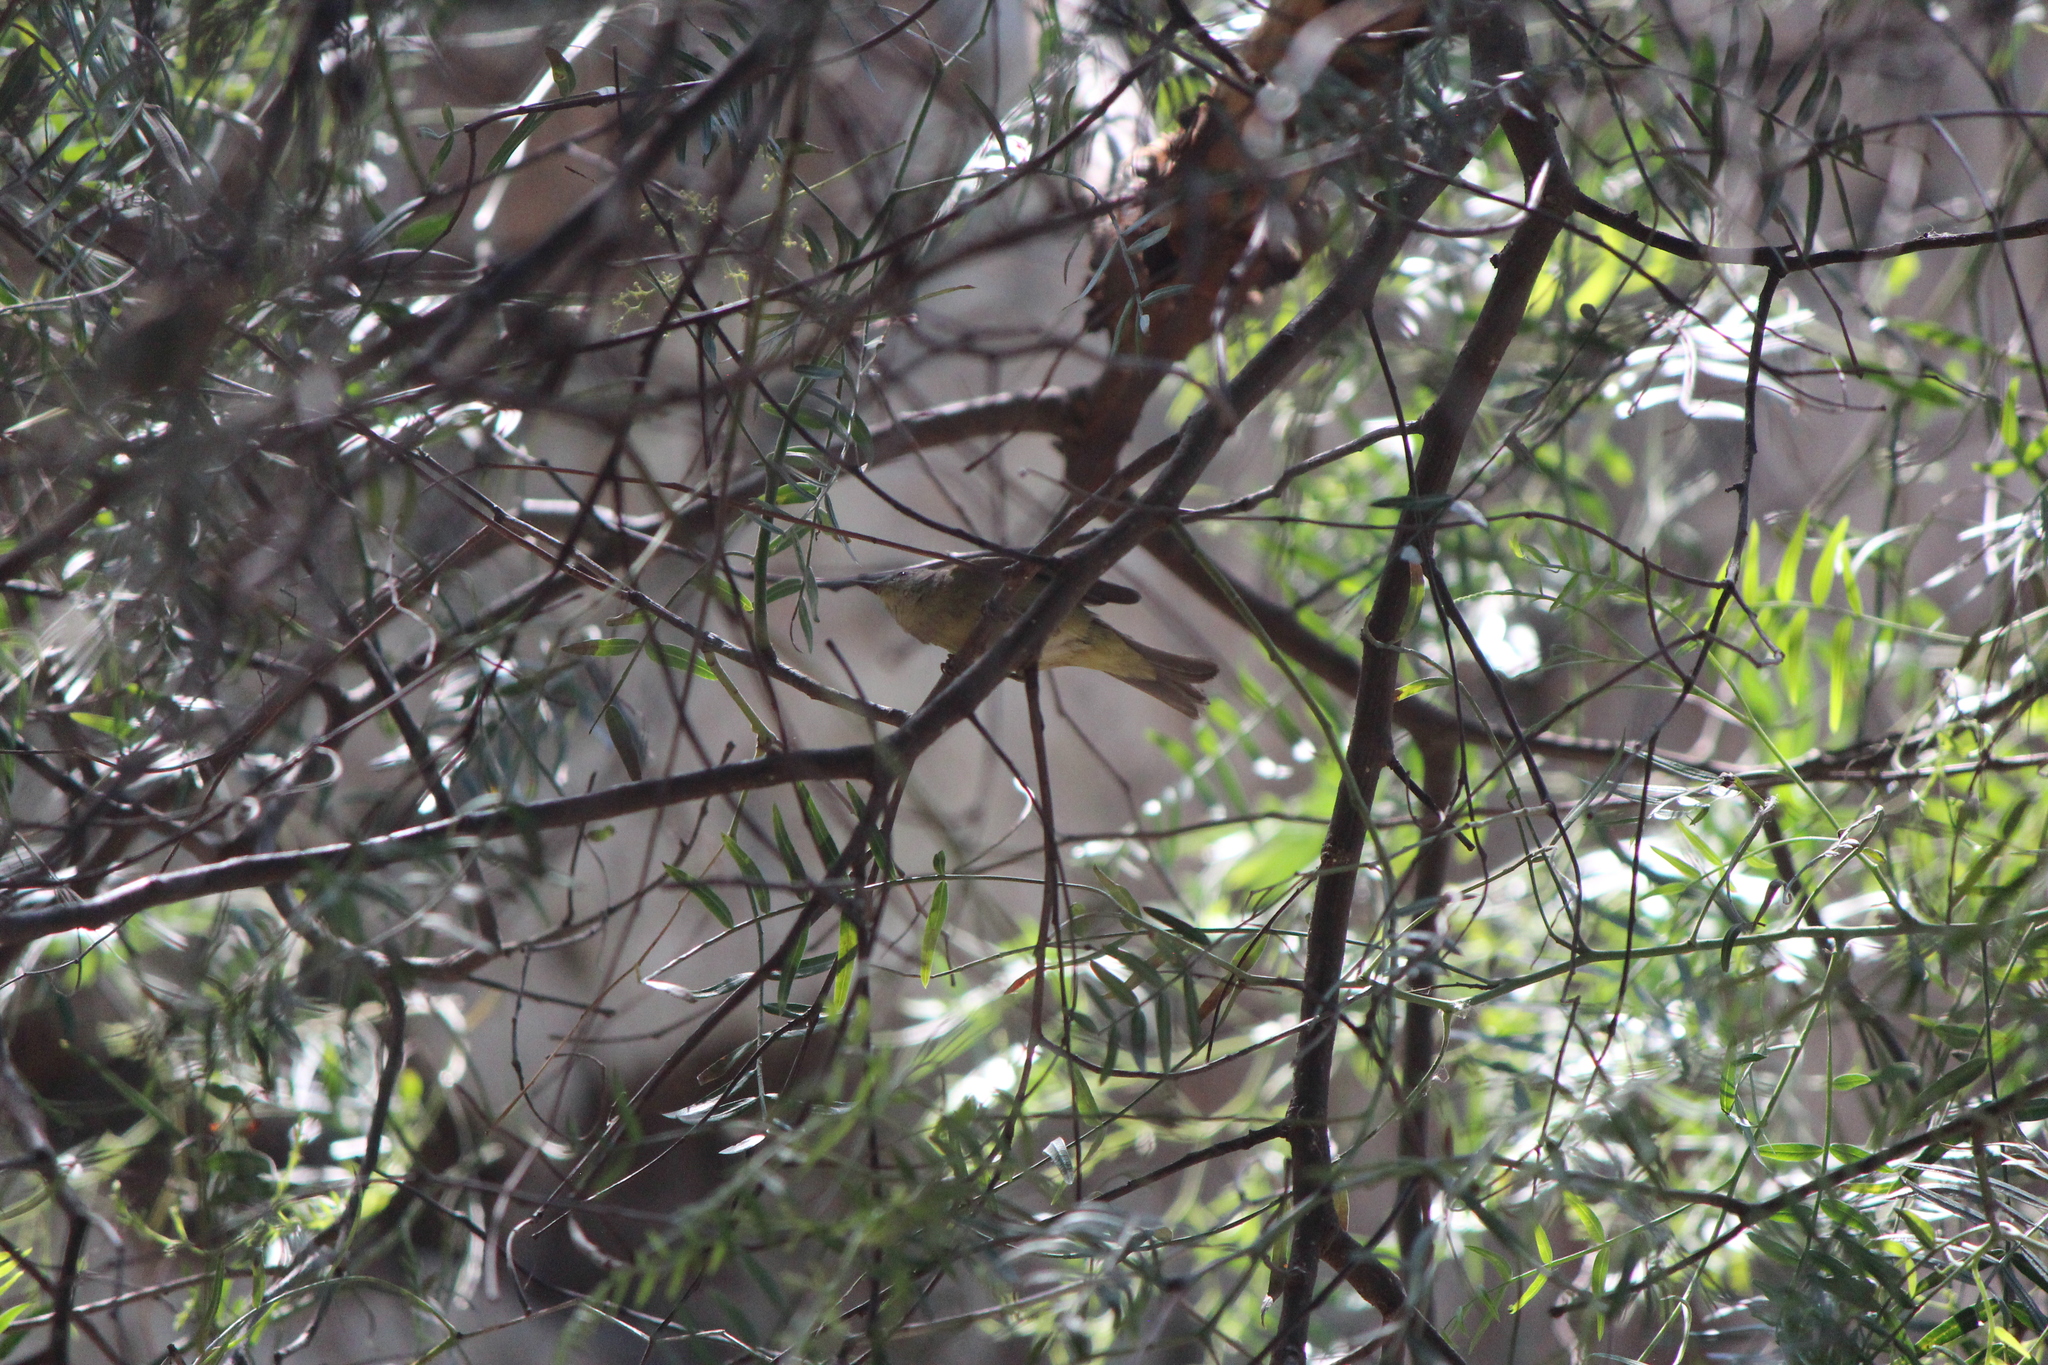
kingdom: Animalia
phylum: Chordata
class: Aves
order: Passeriformes
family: Parulidae
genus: Leiothlypis
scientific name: Leiothlypis celata
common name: Orange-crowned warbler
